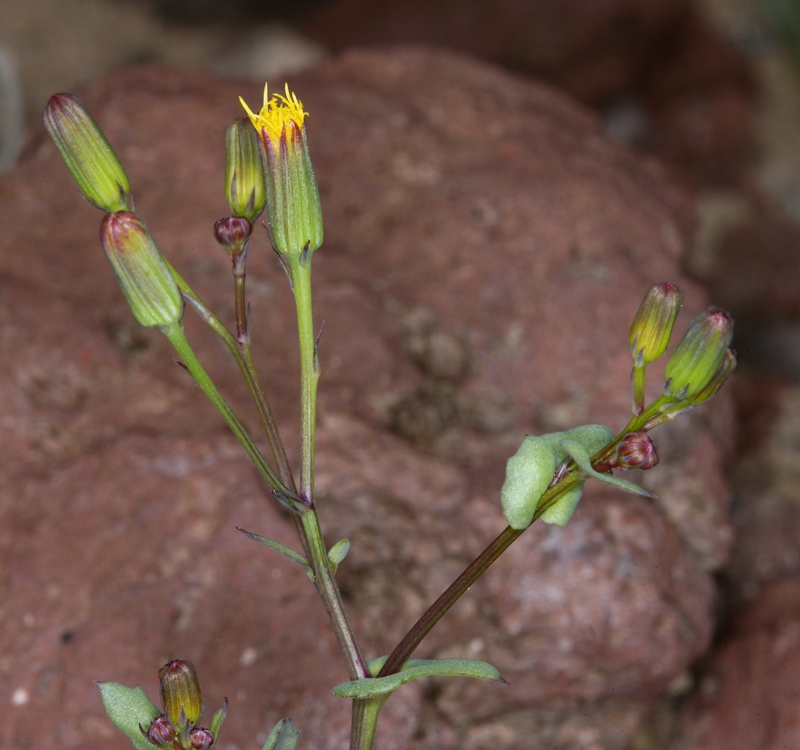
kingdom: Plantae
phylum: Tracheophyta
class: Magnoliopsida
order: Asterales
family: Asteraceae
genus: Senecio
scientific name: Senecio mohavensis
